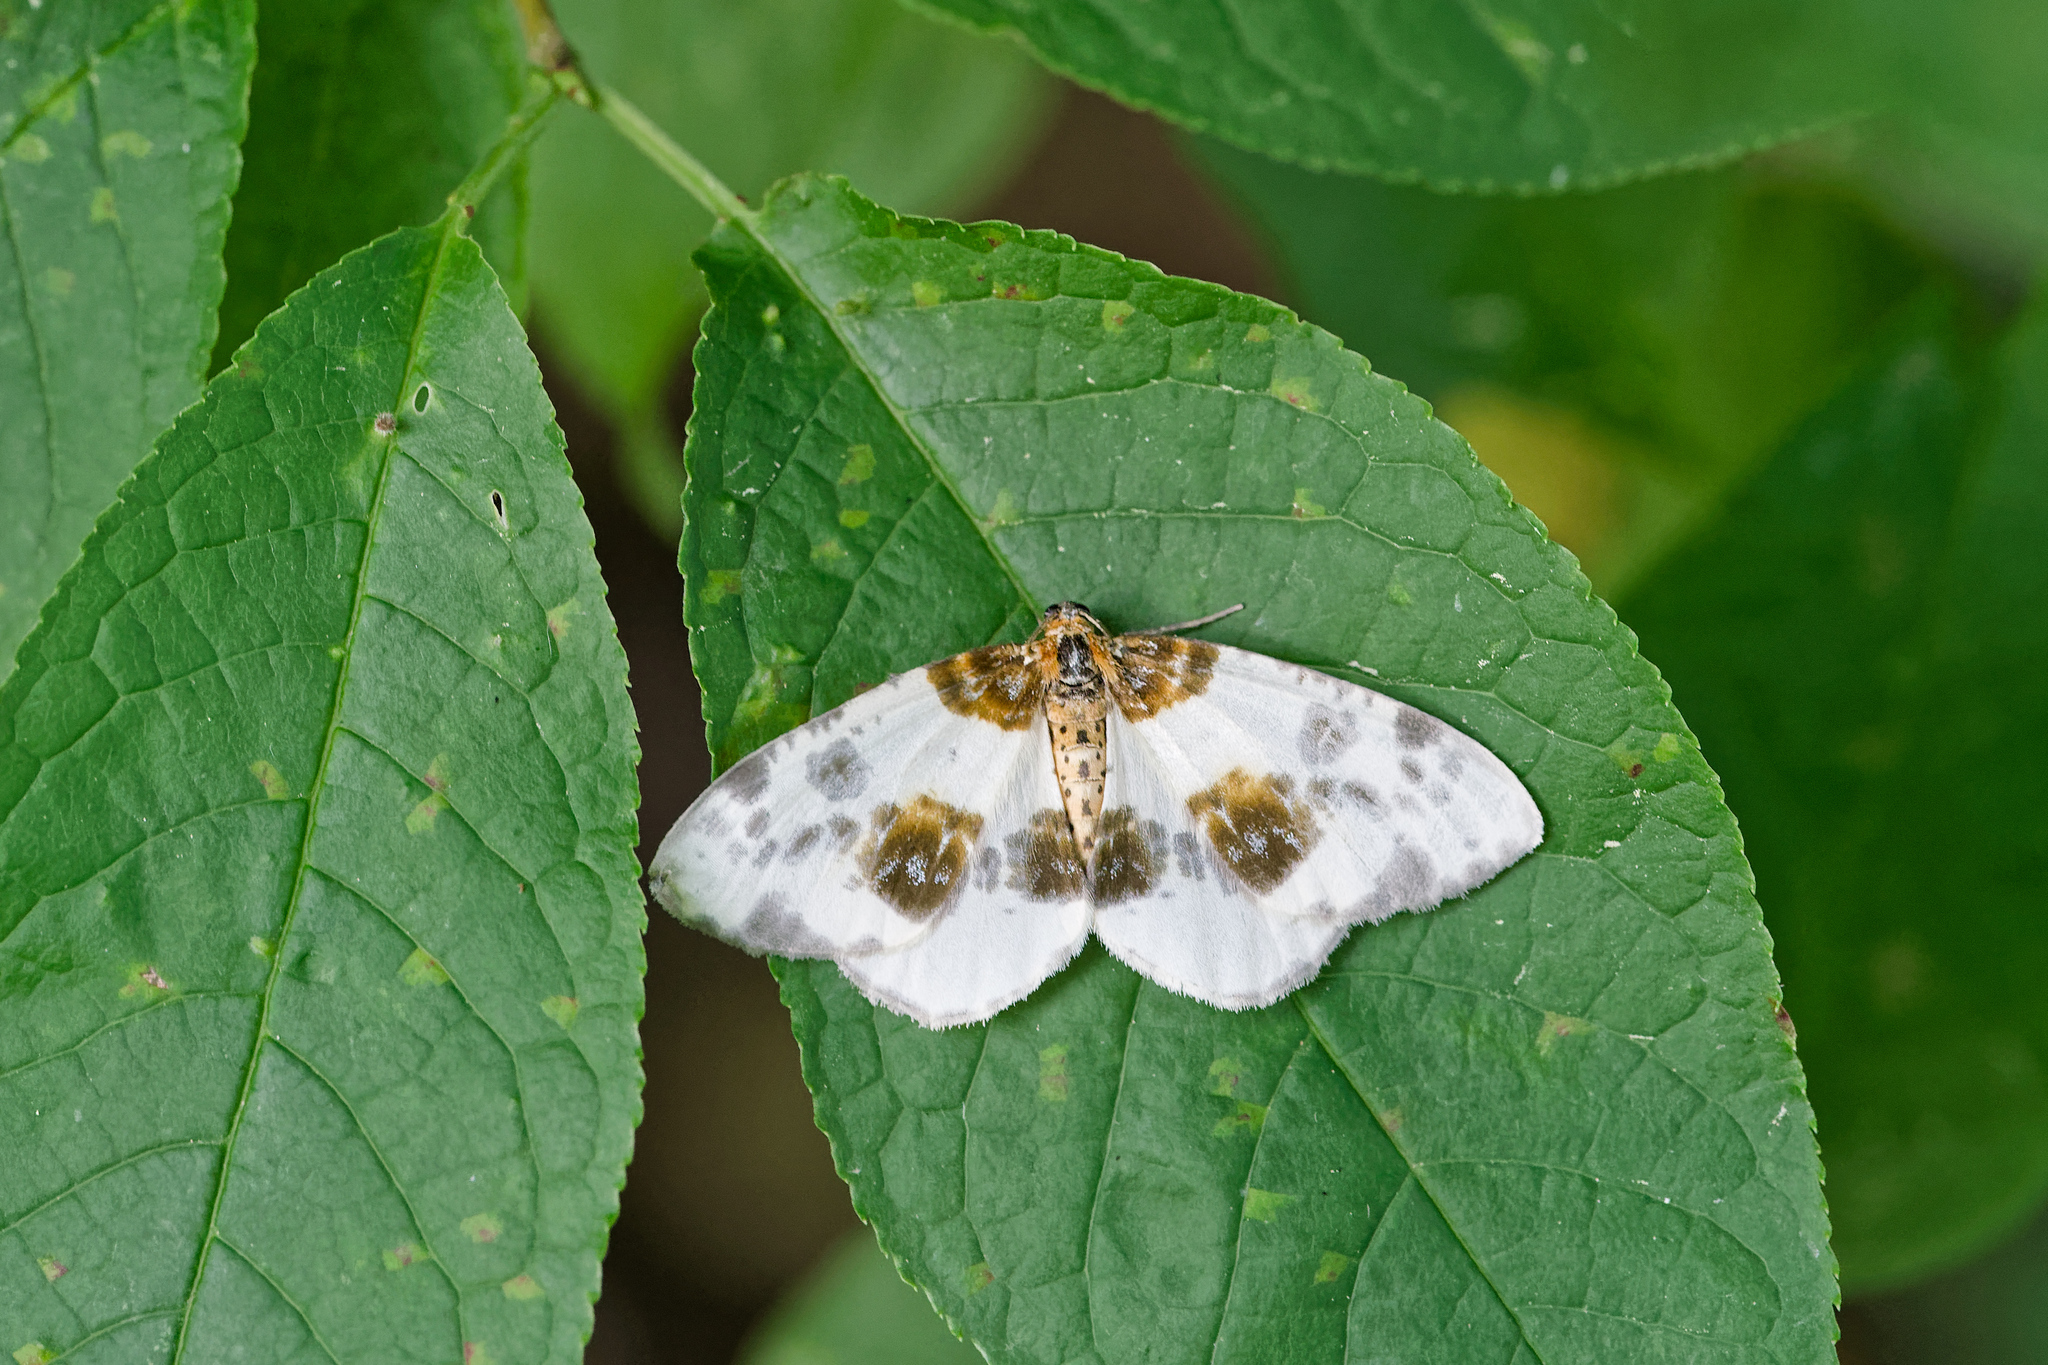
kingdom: Animalia
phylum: Arthropoda
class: Insecta
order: Lepidoptera
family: Geometridae
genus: Abraxas
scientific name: Abraxas sylvata
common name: Clouded magpie
